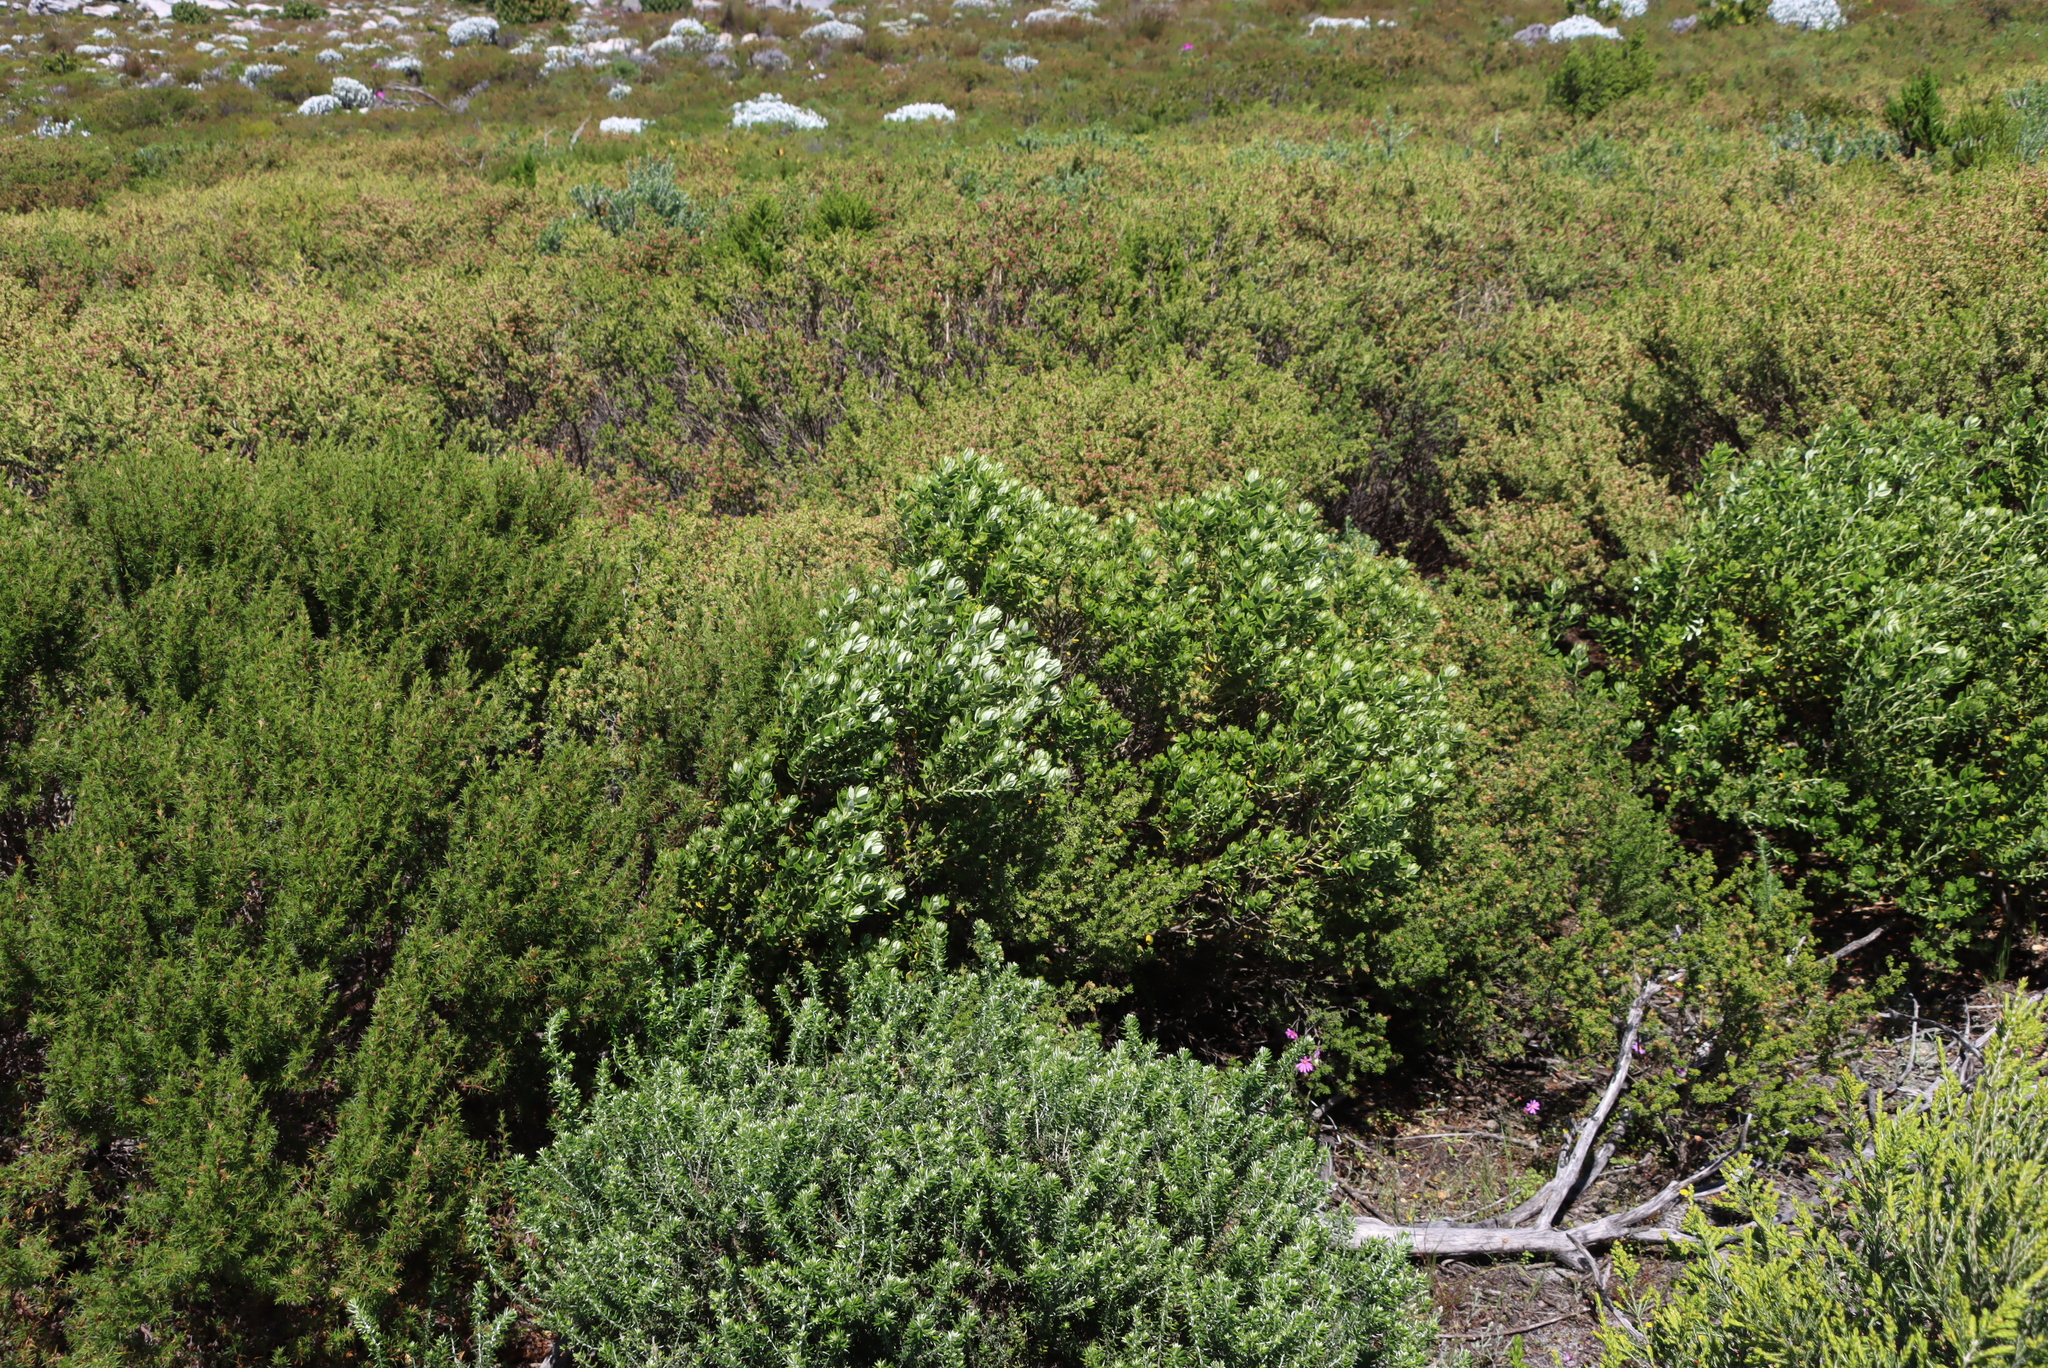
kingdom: Plantae
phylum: Tracheophyta
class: Magnoliopsida
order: Rosales
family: Rhamnaceae
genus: Phylica
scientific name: Phylica buxifolia
